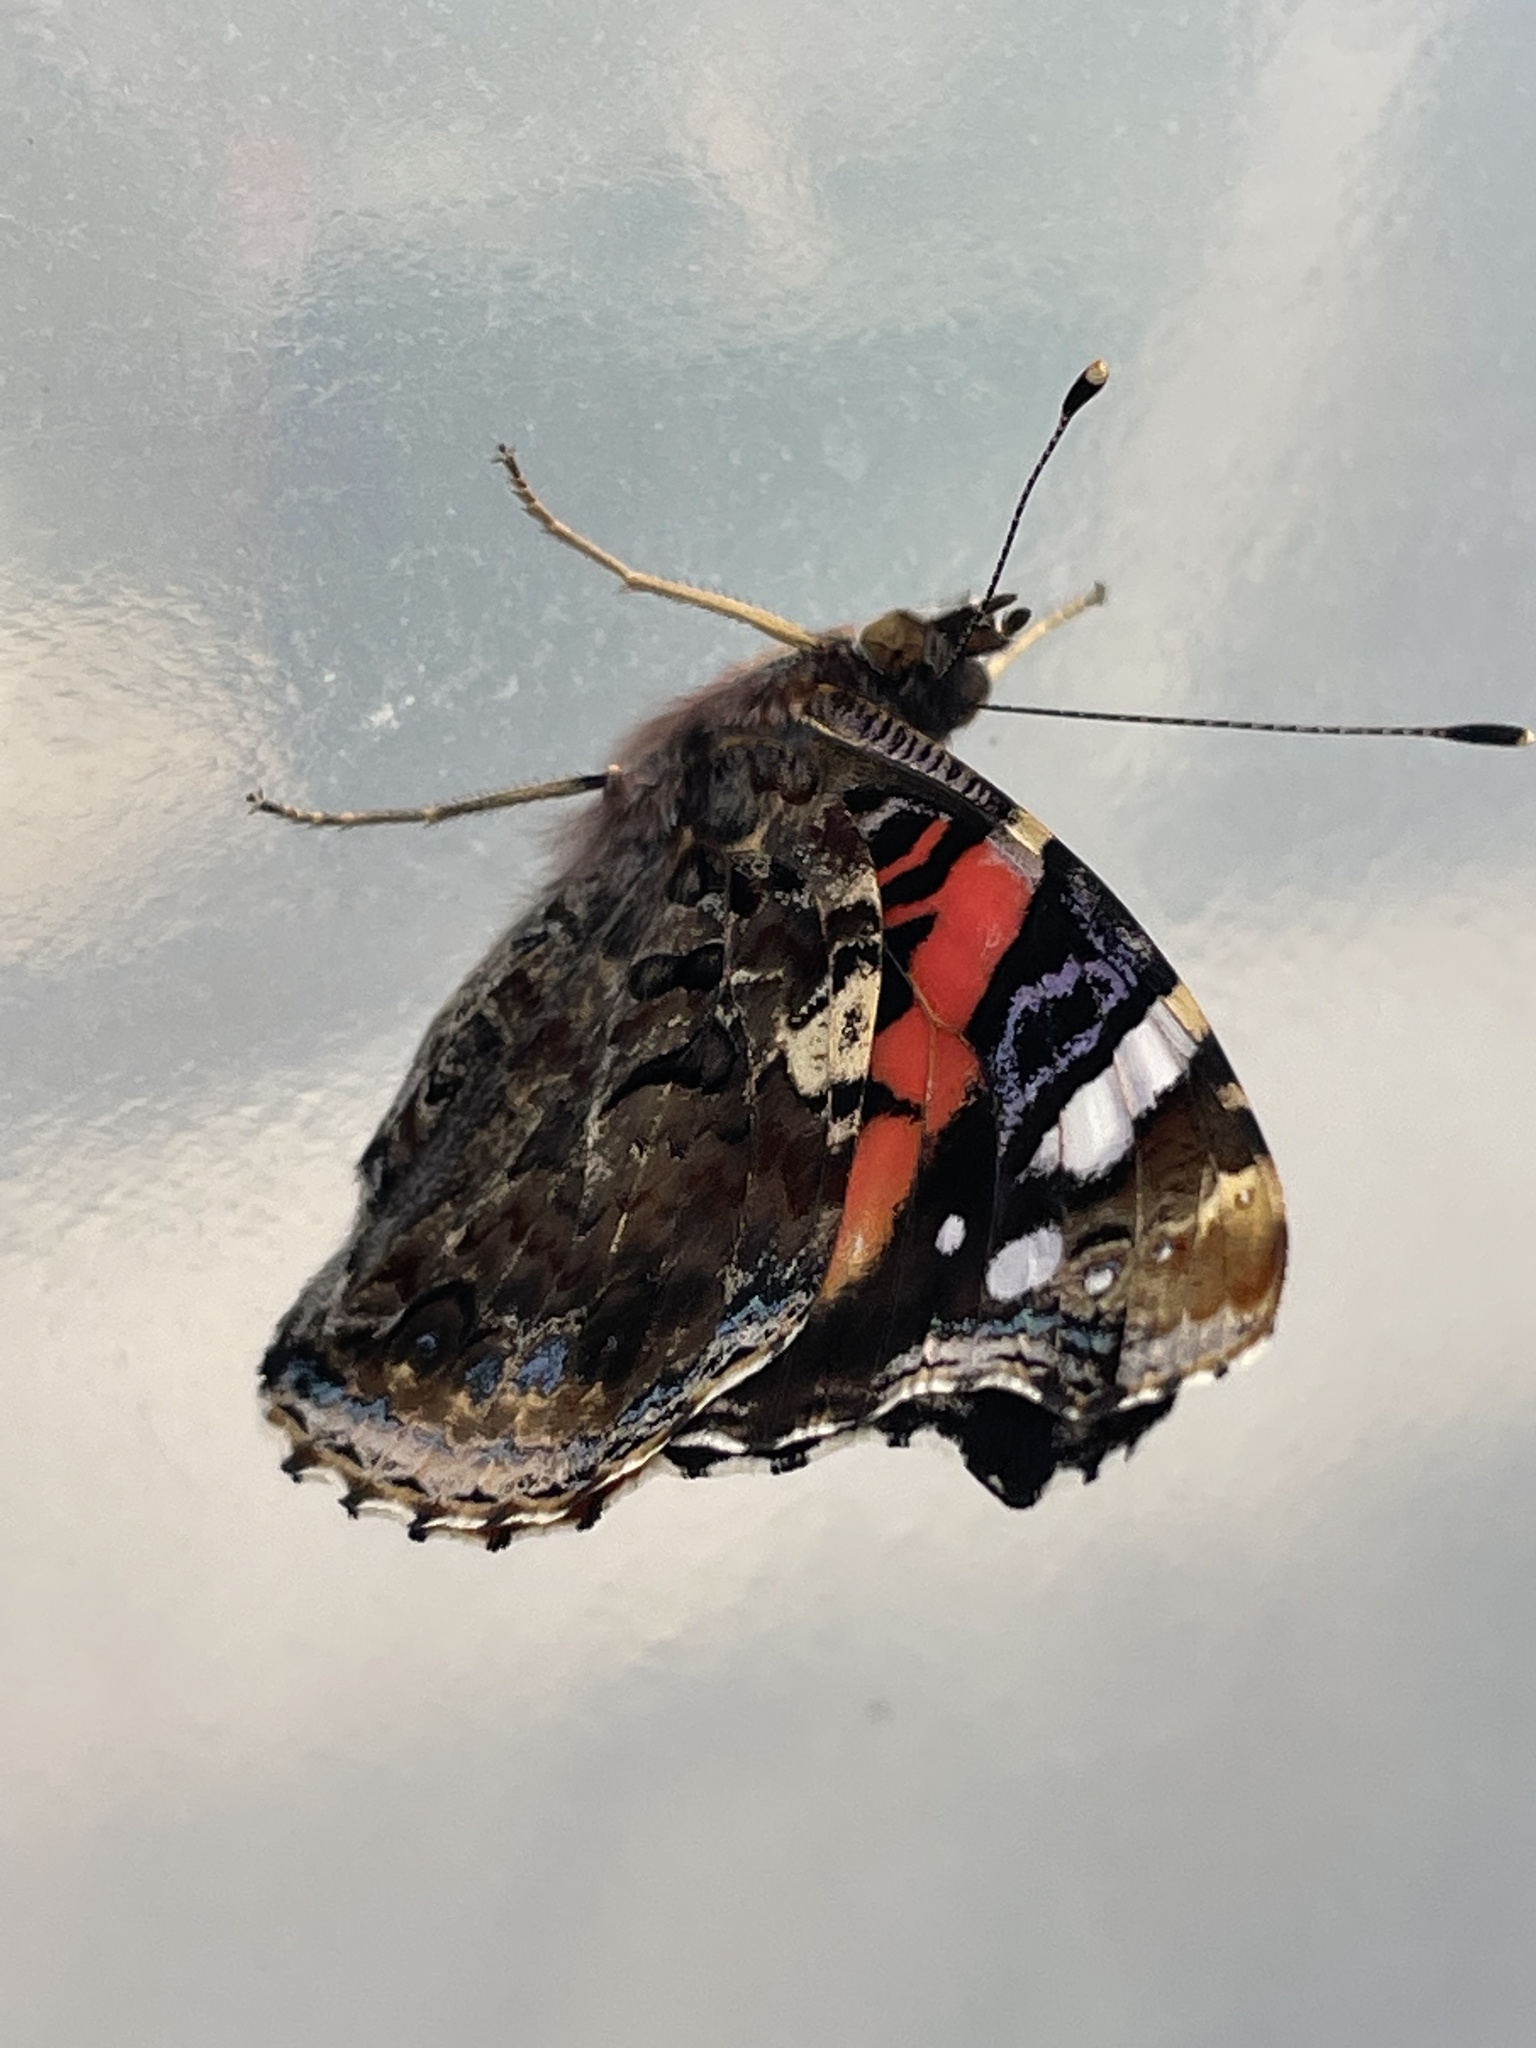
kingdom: Animalia
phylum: Arthropoda
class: Insecta
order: Lepidoptera
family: Nymphalidae
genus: Vanessa
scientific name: Vanessa atalanta
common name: Red admiral
